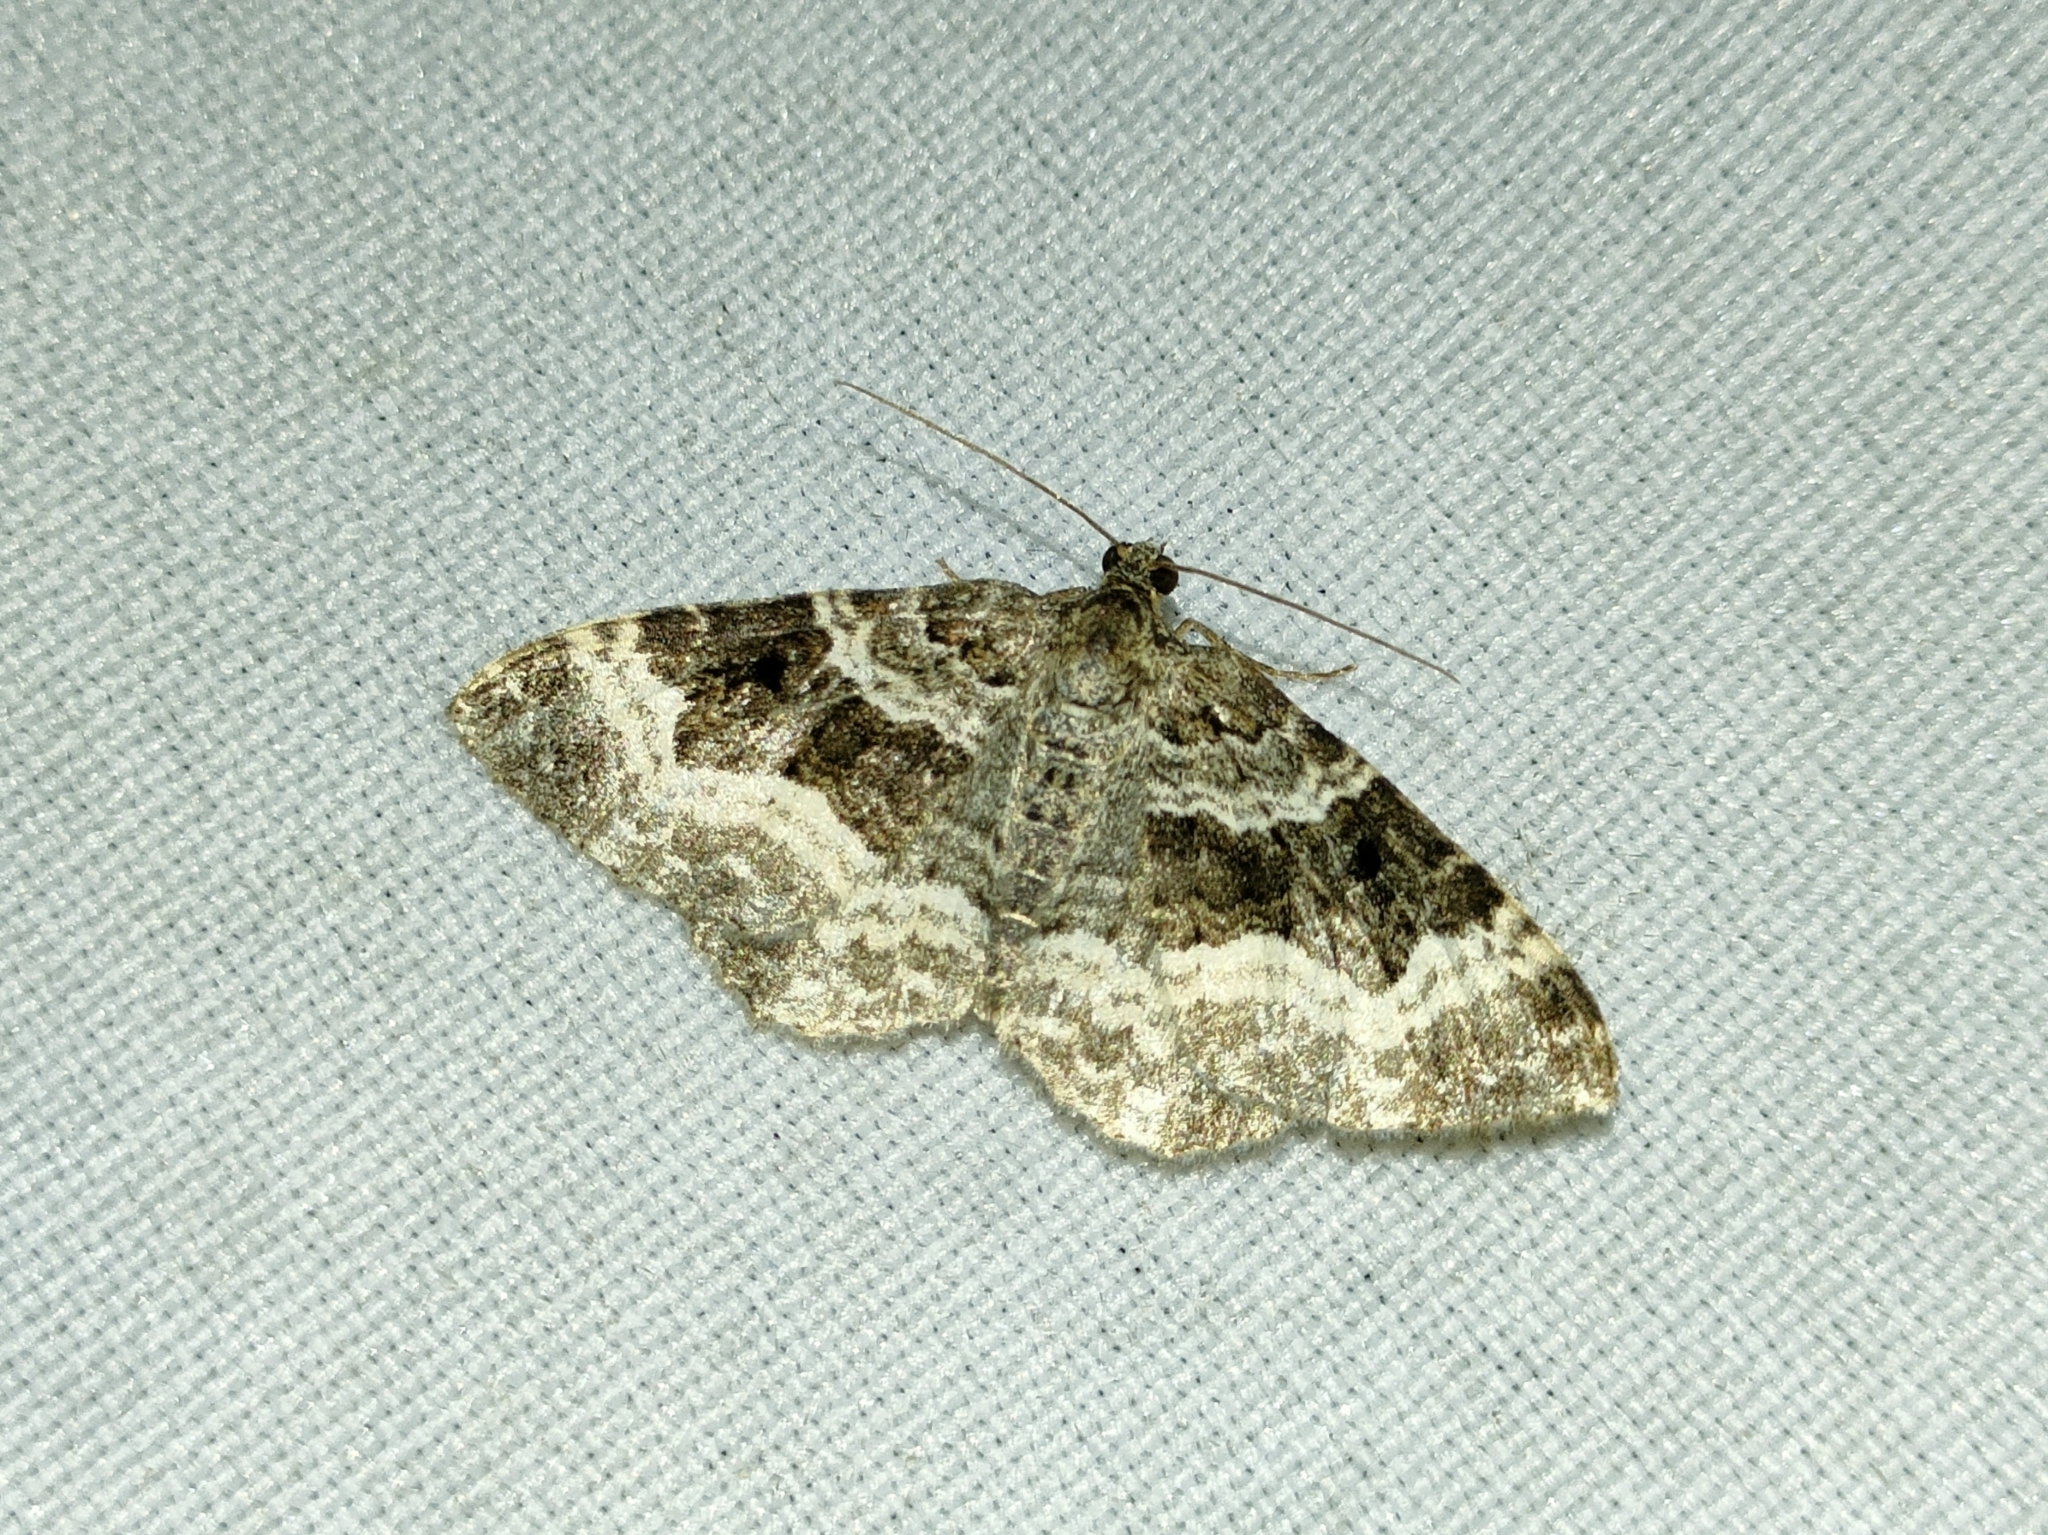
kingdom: Animalia
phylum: Arthropoda
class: Insecta
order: Lepidoptera
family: Geometridae
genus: Epirrhoe
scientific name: Epirrhoe alternata
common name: Common carpet
